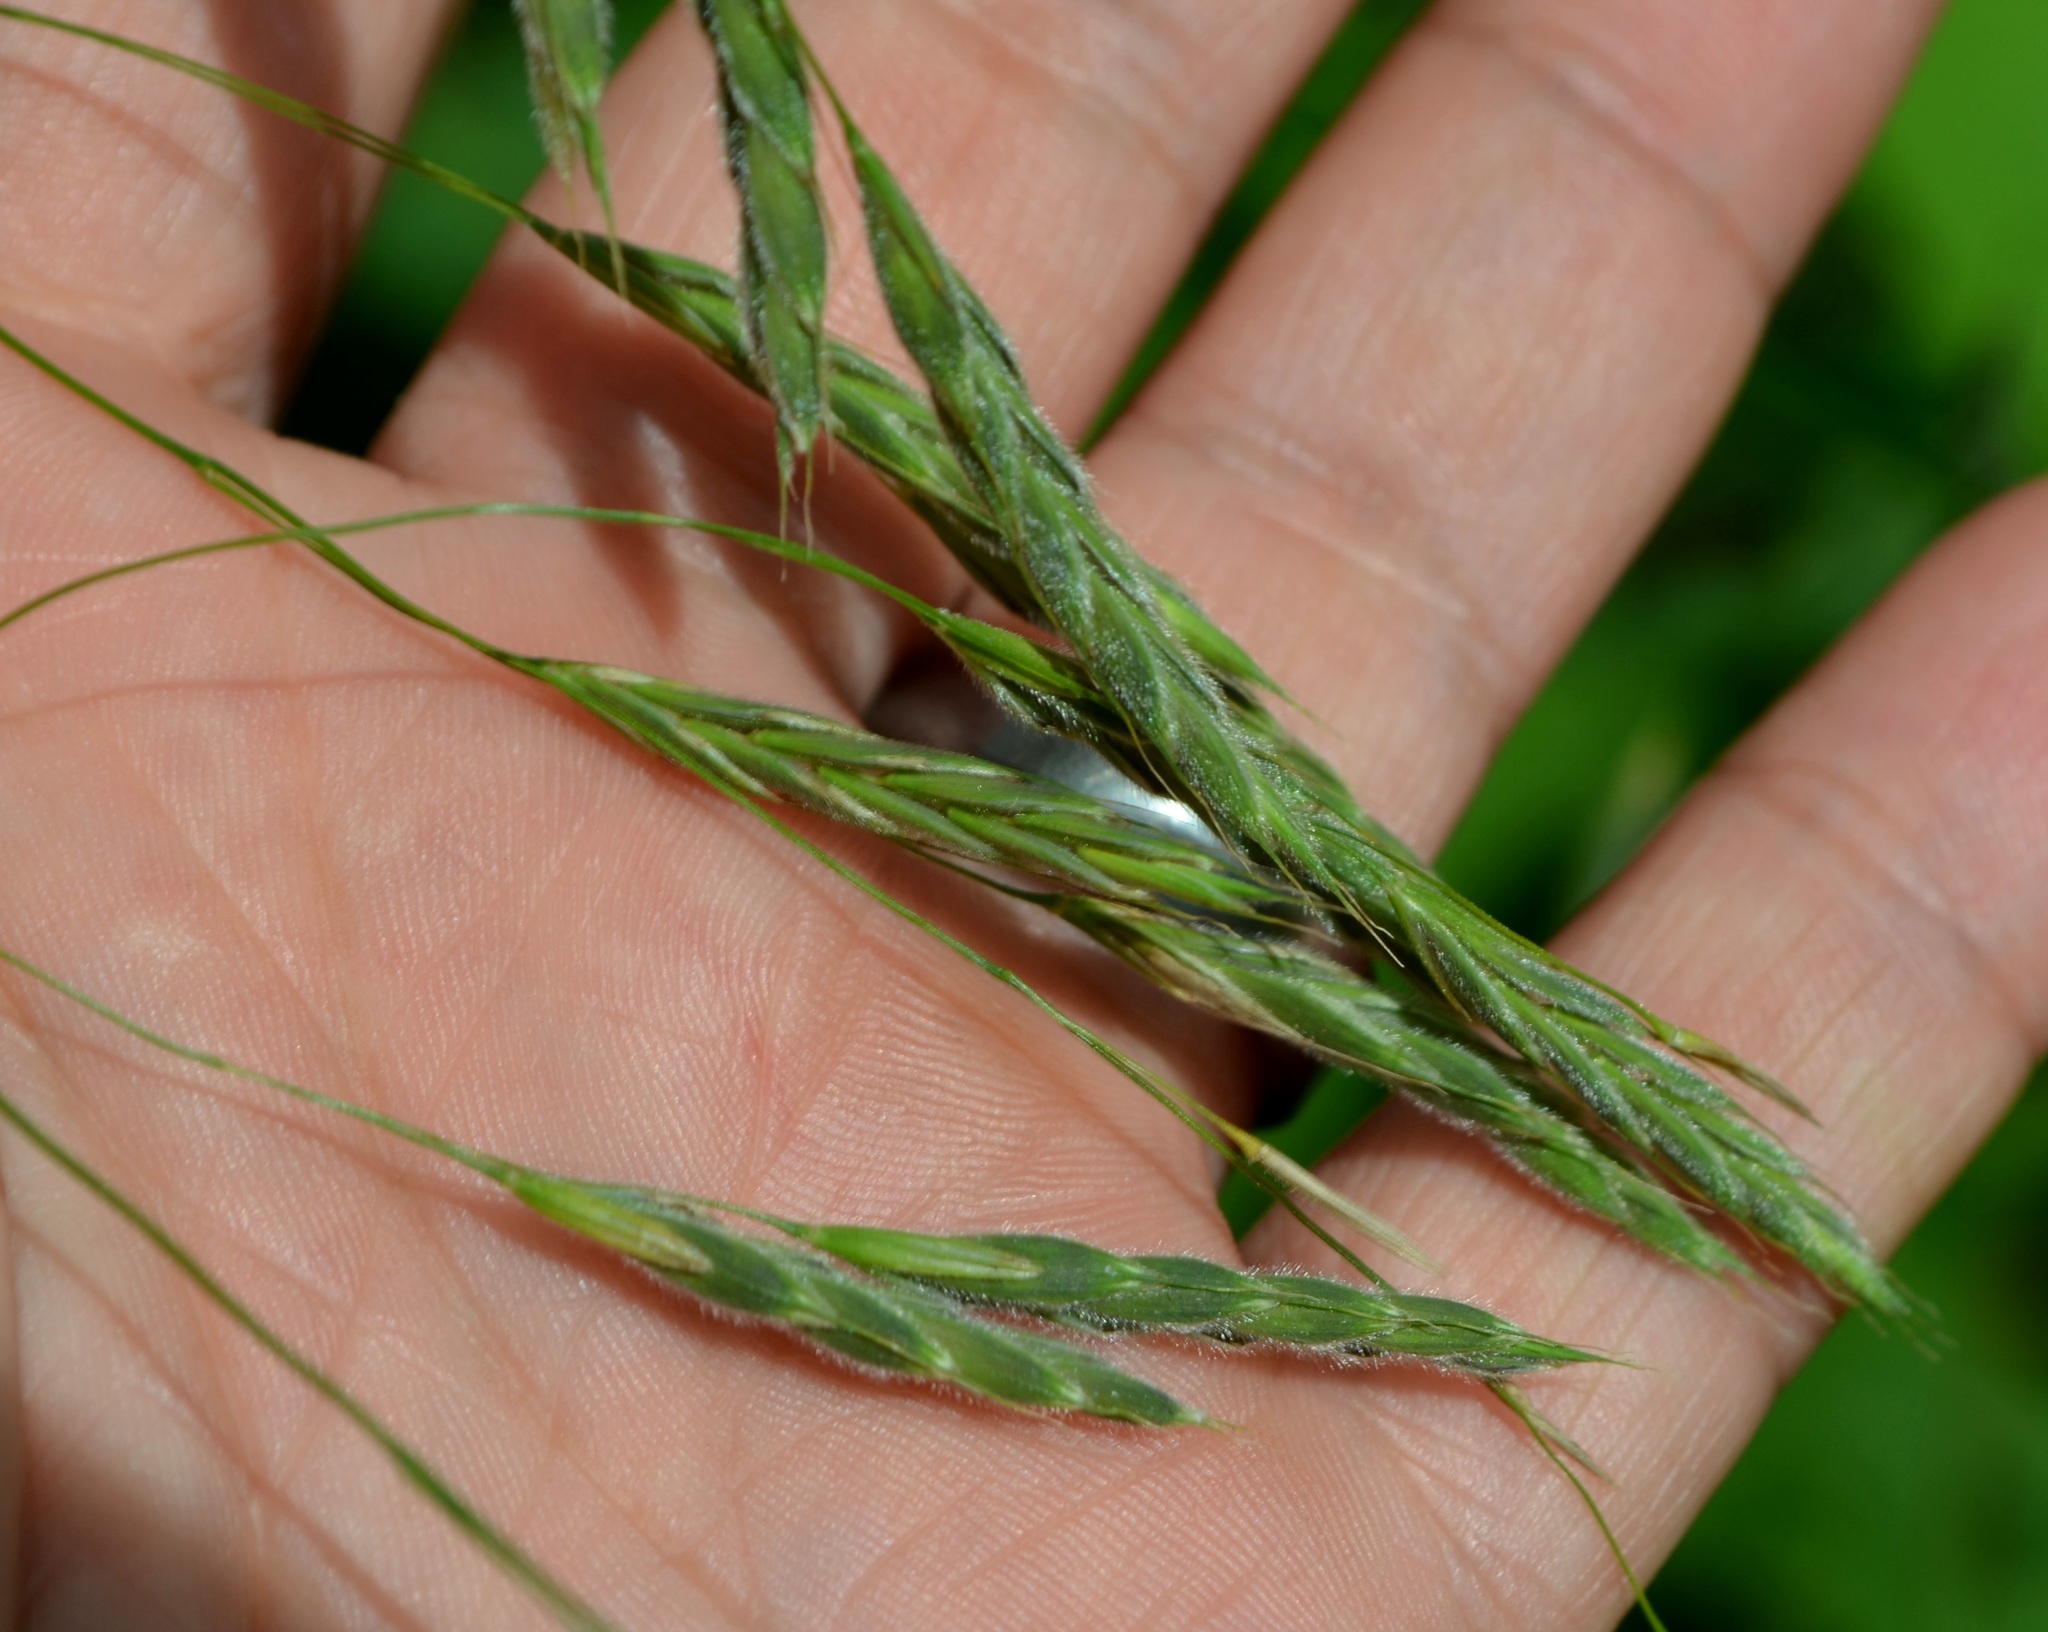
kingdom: Plantae
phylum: Tracheophyta
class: Liliopsida
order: Poales
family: Poaceae
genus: Bromus
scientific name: Bromus pubescens
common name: Hairy wood brome grass
